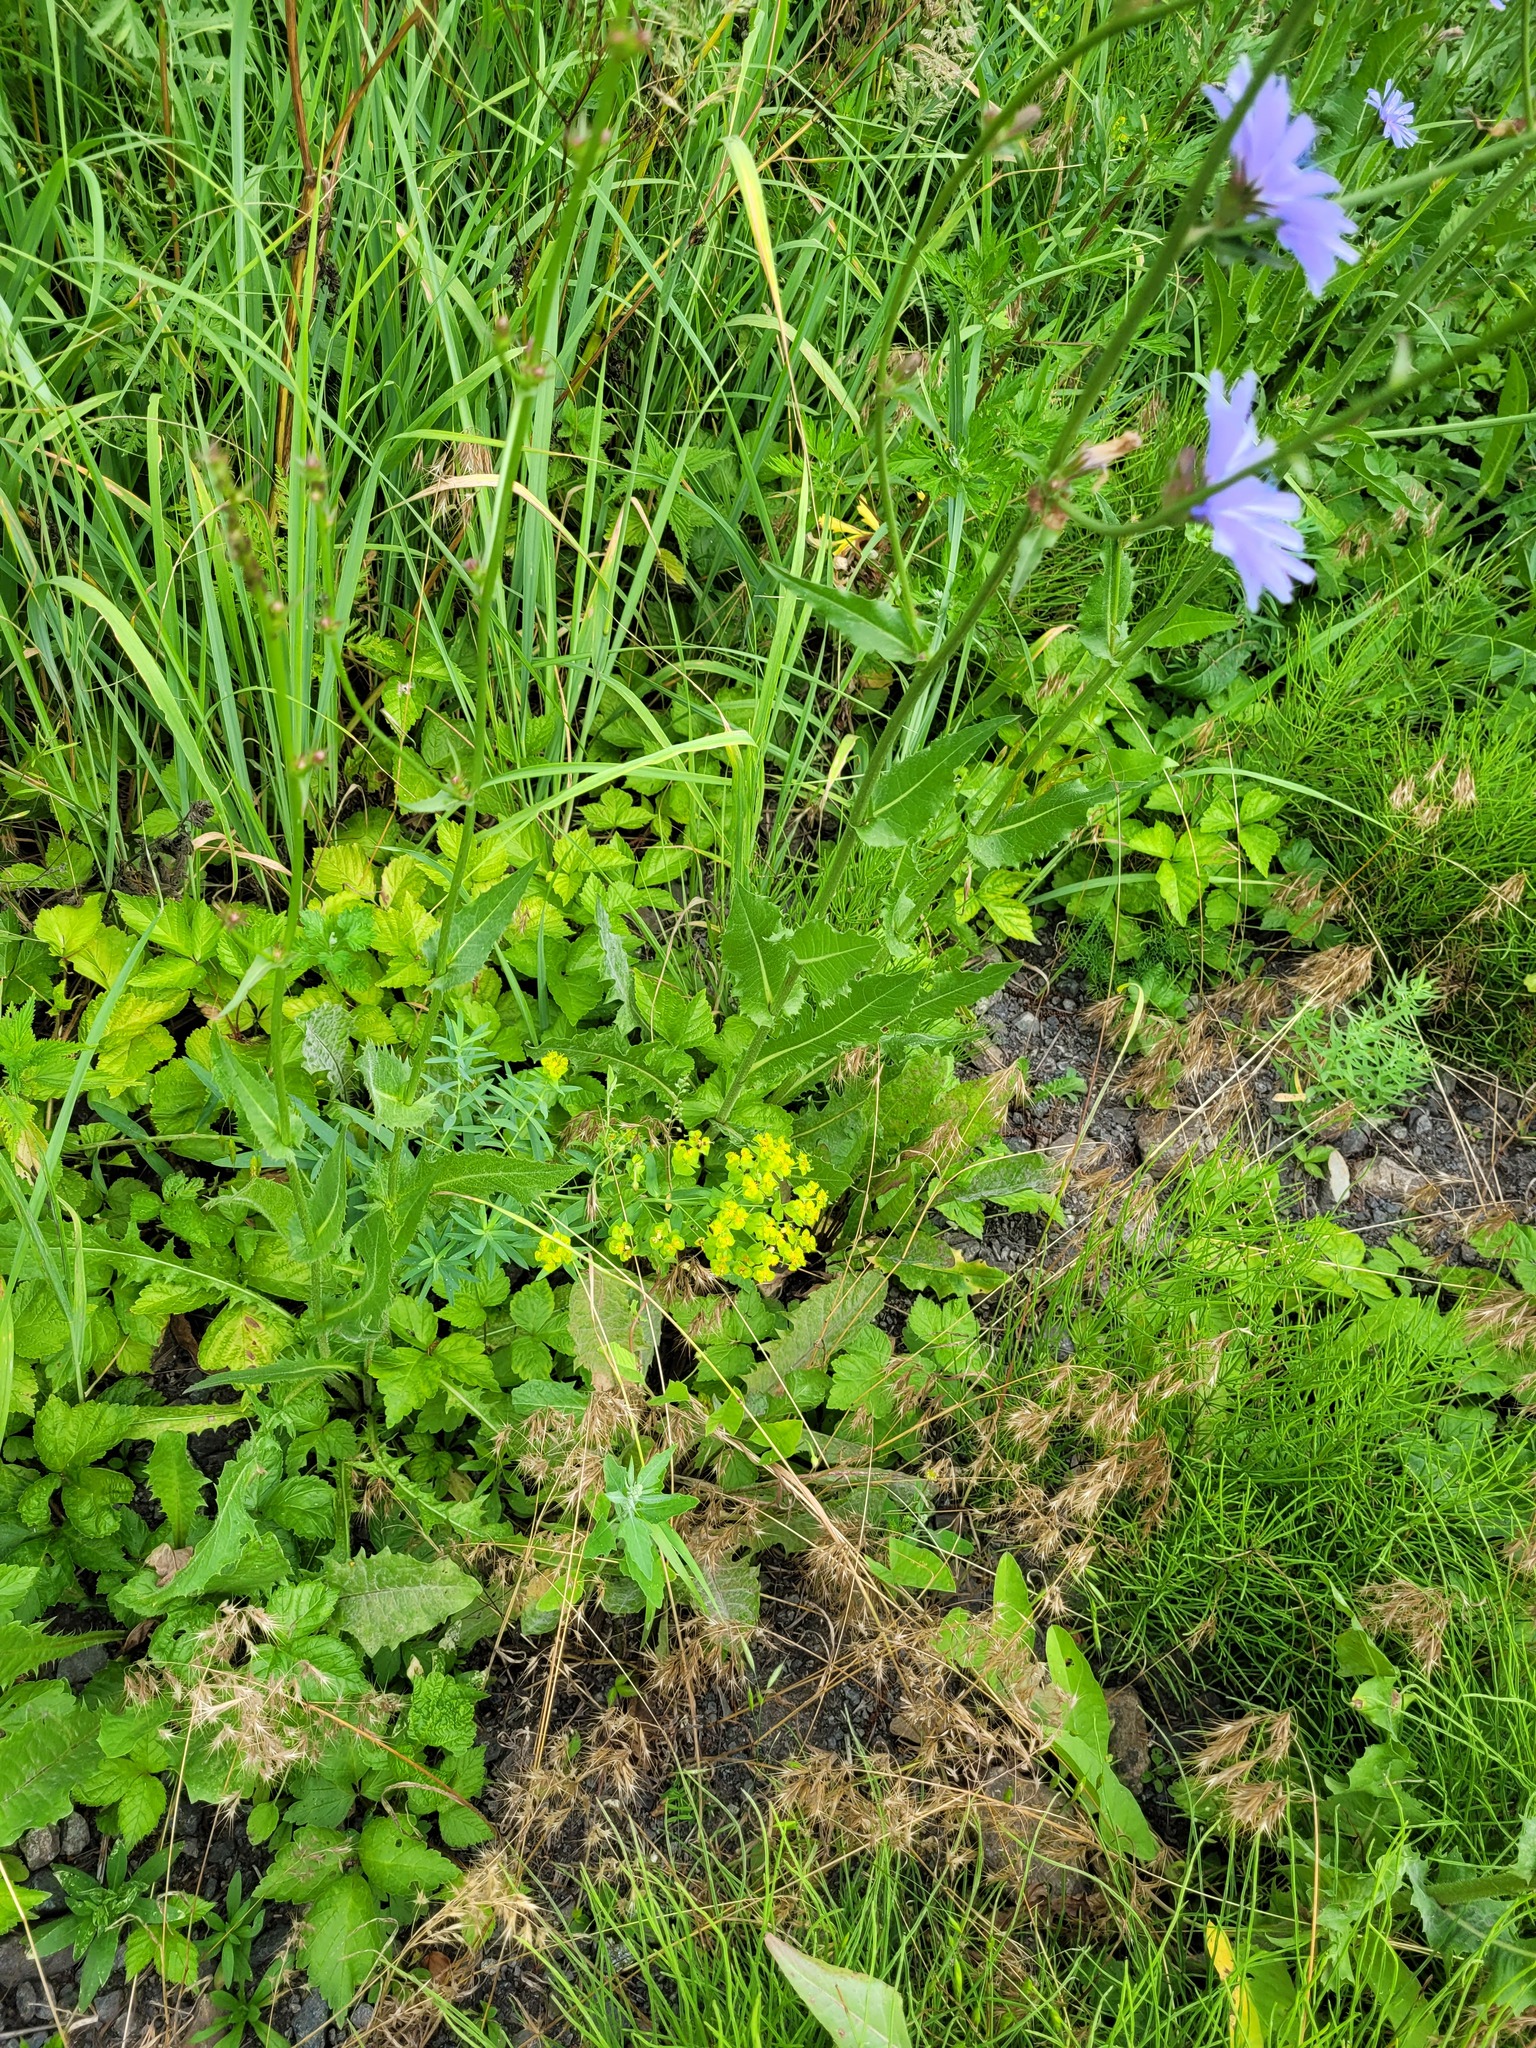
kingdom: Plantae
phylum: Tracheophyta
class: Magnoliopsida
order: Malpighiales
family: Euphorbiaceae
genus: Euphorbia
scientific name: Euphorbia virgata
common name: Leafy spurge
